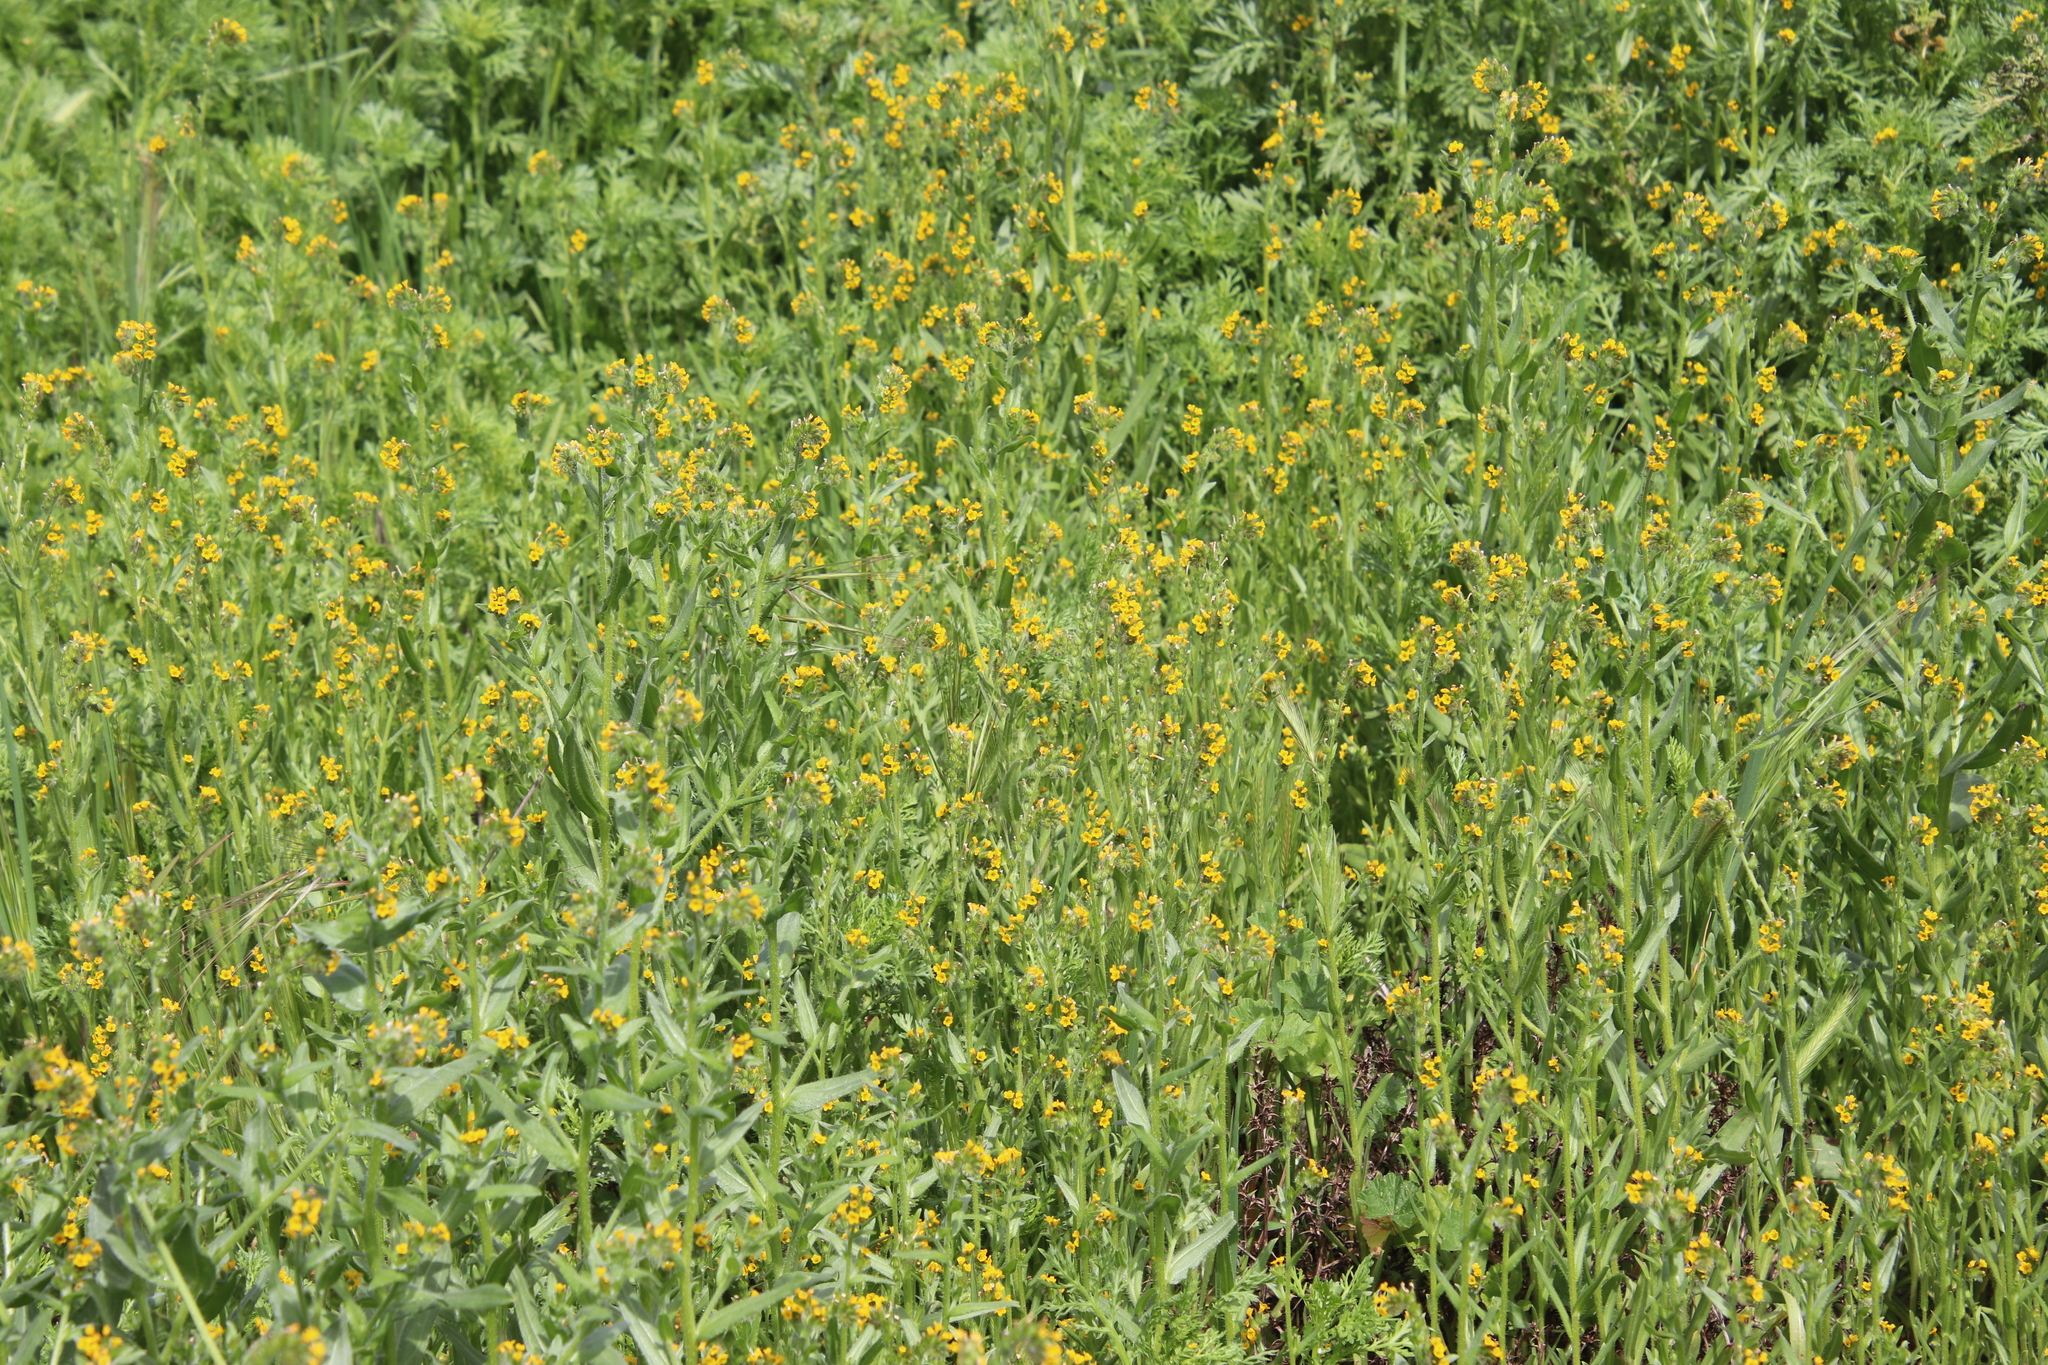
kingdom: Plantae
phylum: Tracheophyta
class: Magnoliopsida
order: Boraginales
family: Boraginaceae
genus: Amsinckia
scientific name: Amsinckia menziesii
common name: Menzies' fiddleneck
